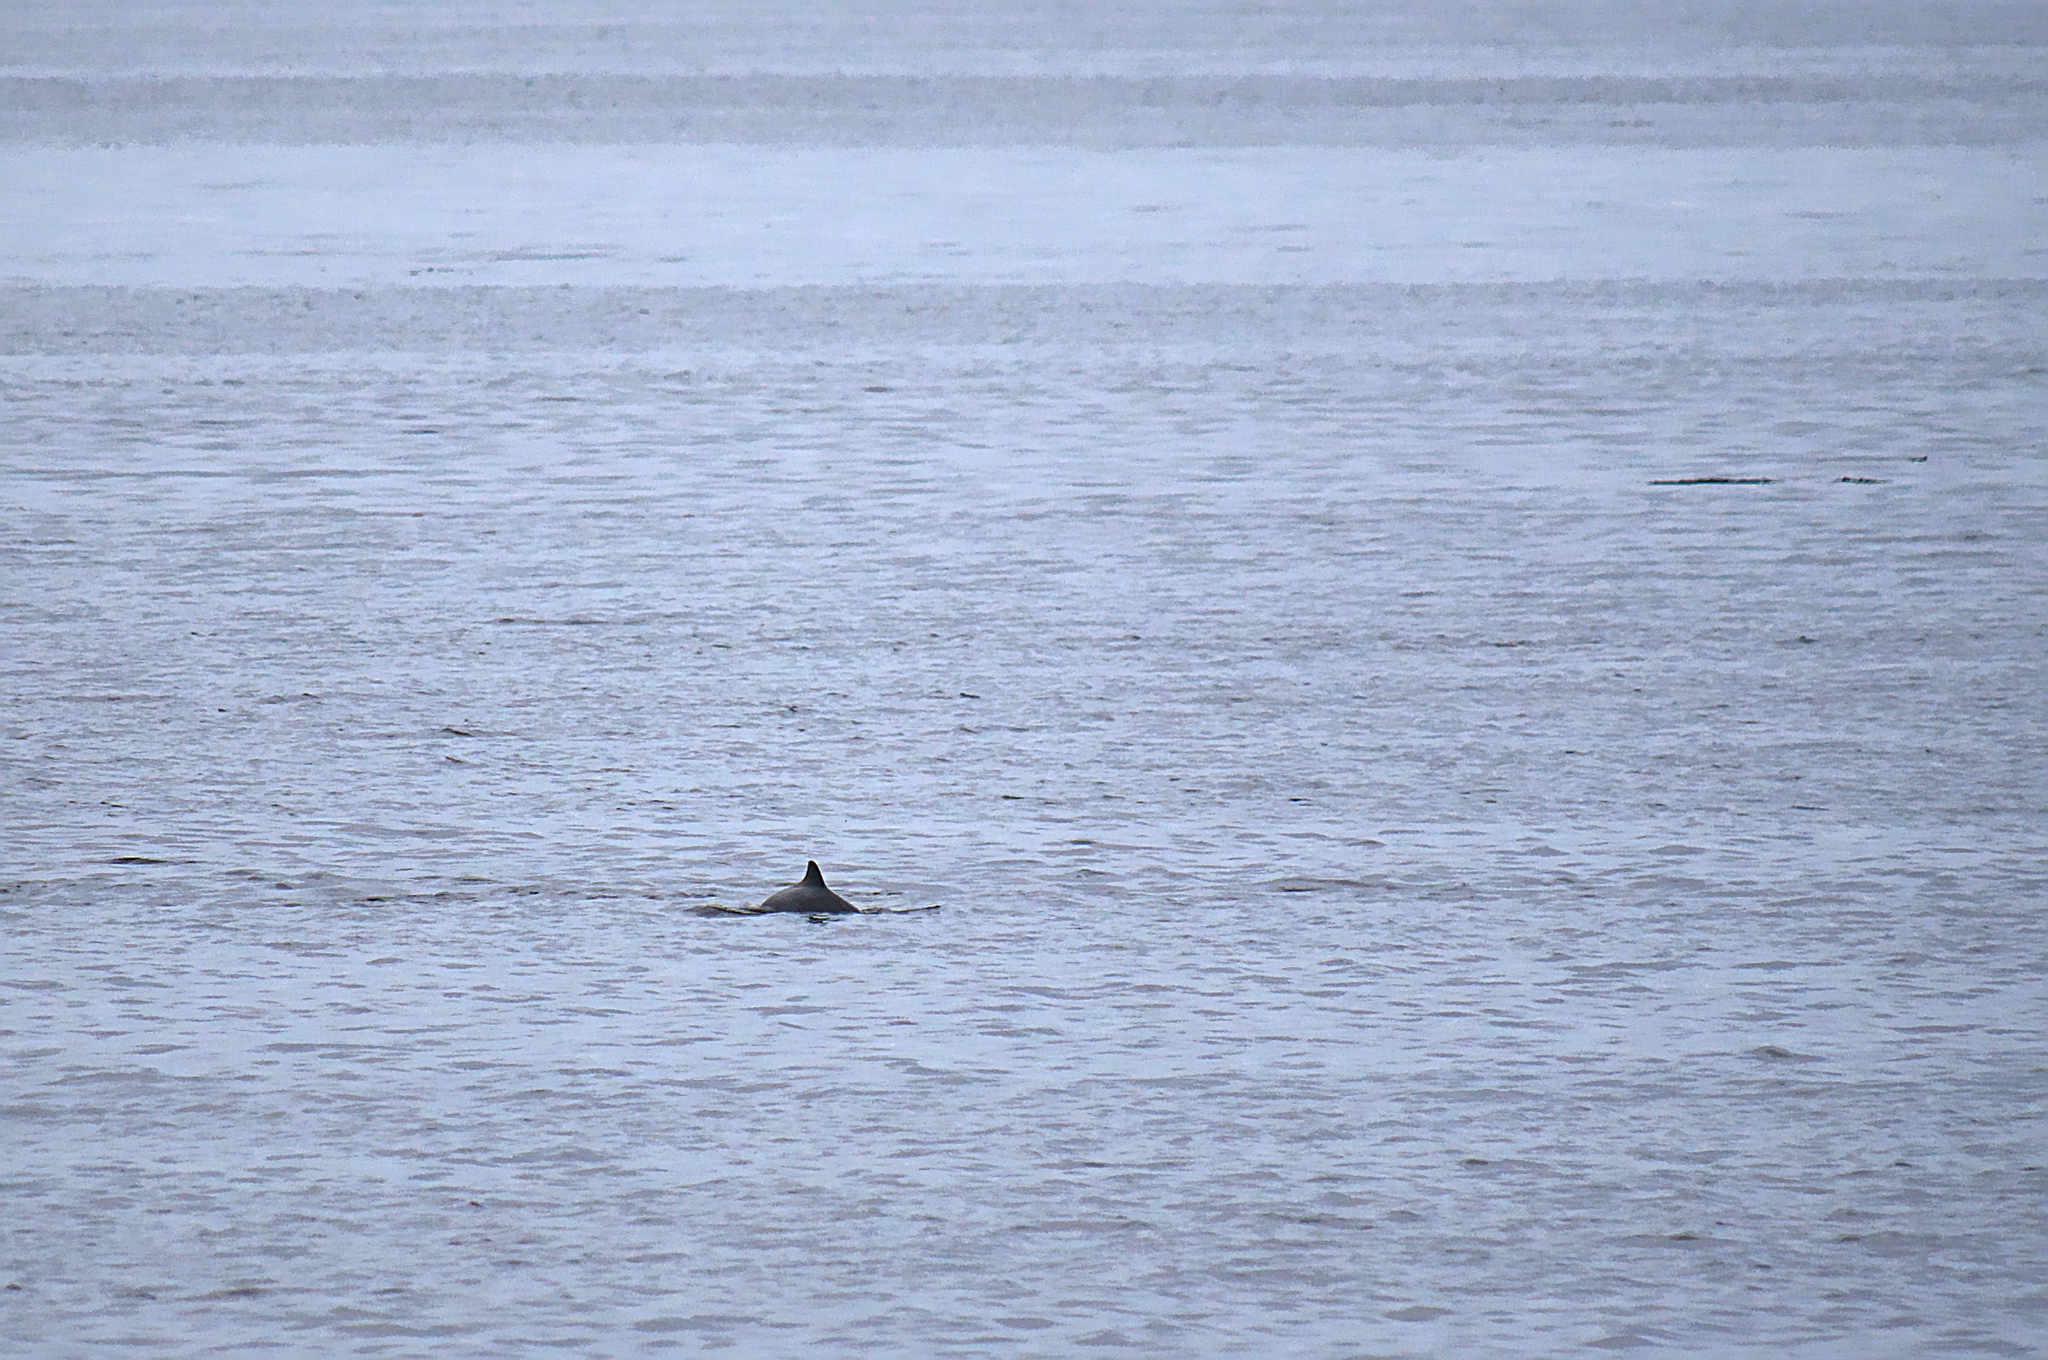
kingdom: Animalia
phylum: Chordata
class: Mammalia
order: Cetacea
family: Phocoenidae
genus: Phocoena
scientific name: Phocoena phocoena
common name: Harbor porpoise
